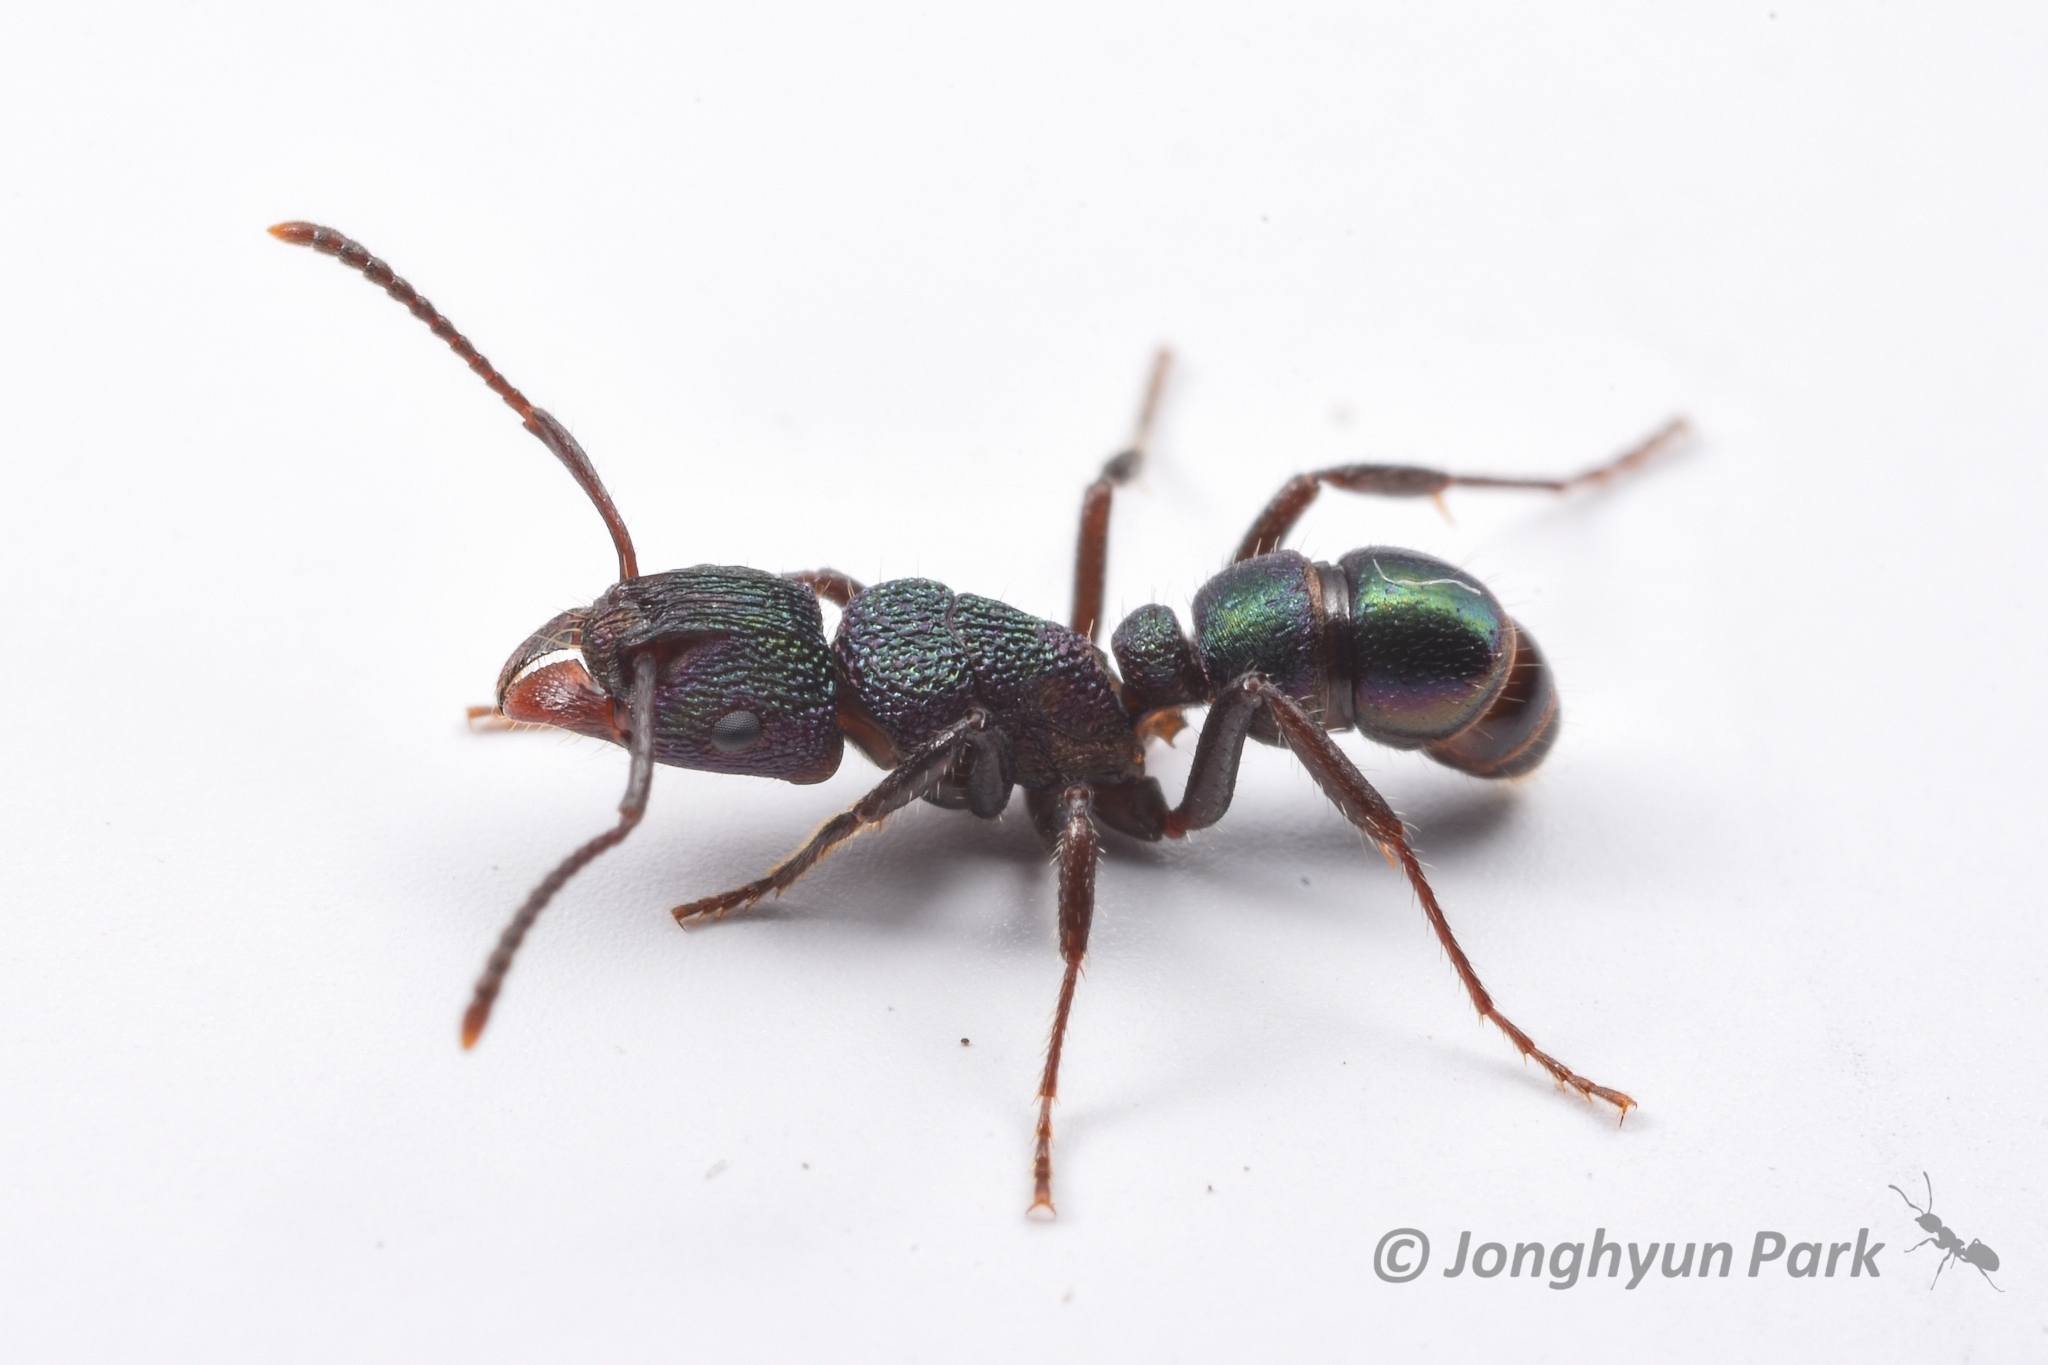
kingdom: Animalia
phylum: Arthropoda
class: Insecta
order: Hymenoptera
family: Formicidae
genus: Rhytidoponera
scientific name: Rhytidoponera metallica
